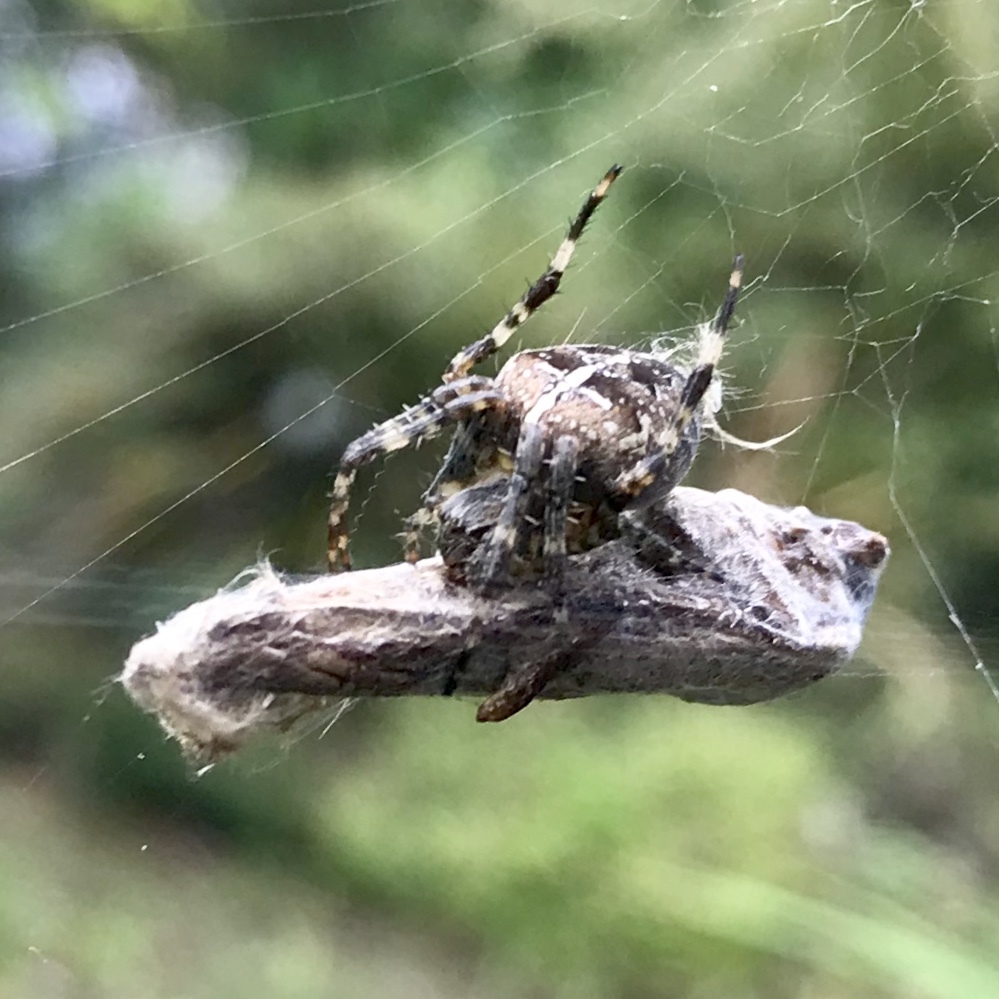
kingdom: Animalia
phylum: Arthropoda
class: Arachnida
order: Araneae
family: Araneidae
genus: Araneus
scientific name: Araneus diadematus
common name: Cross orbweaver
